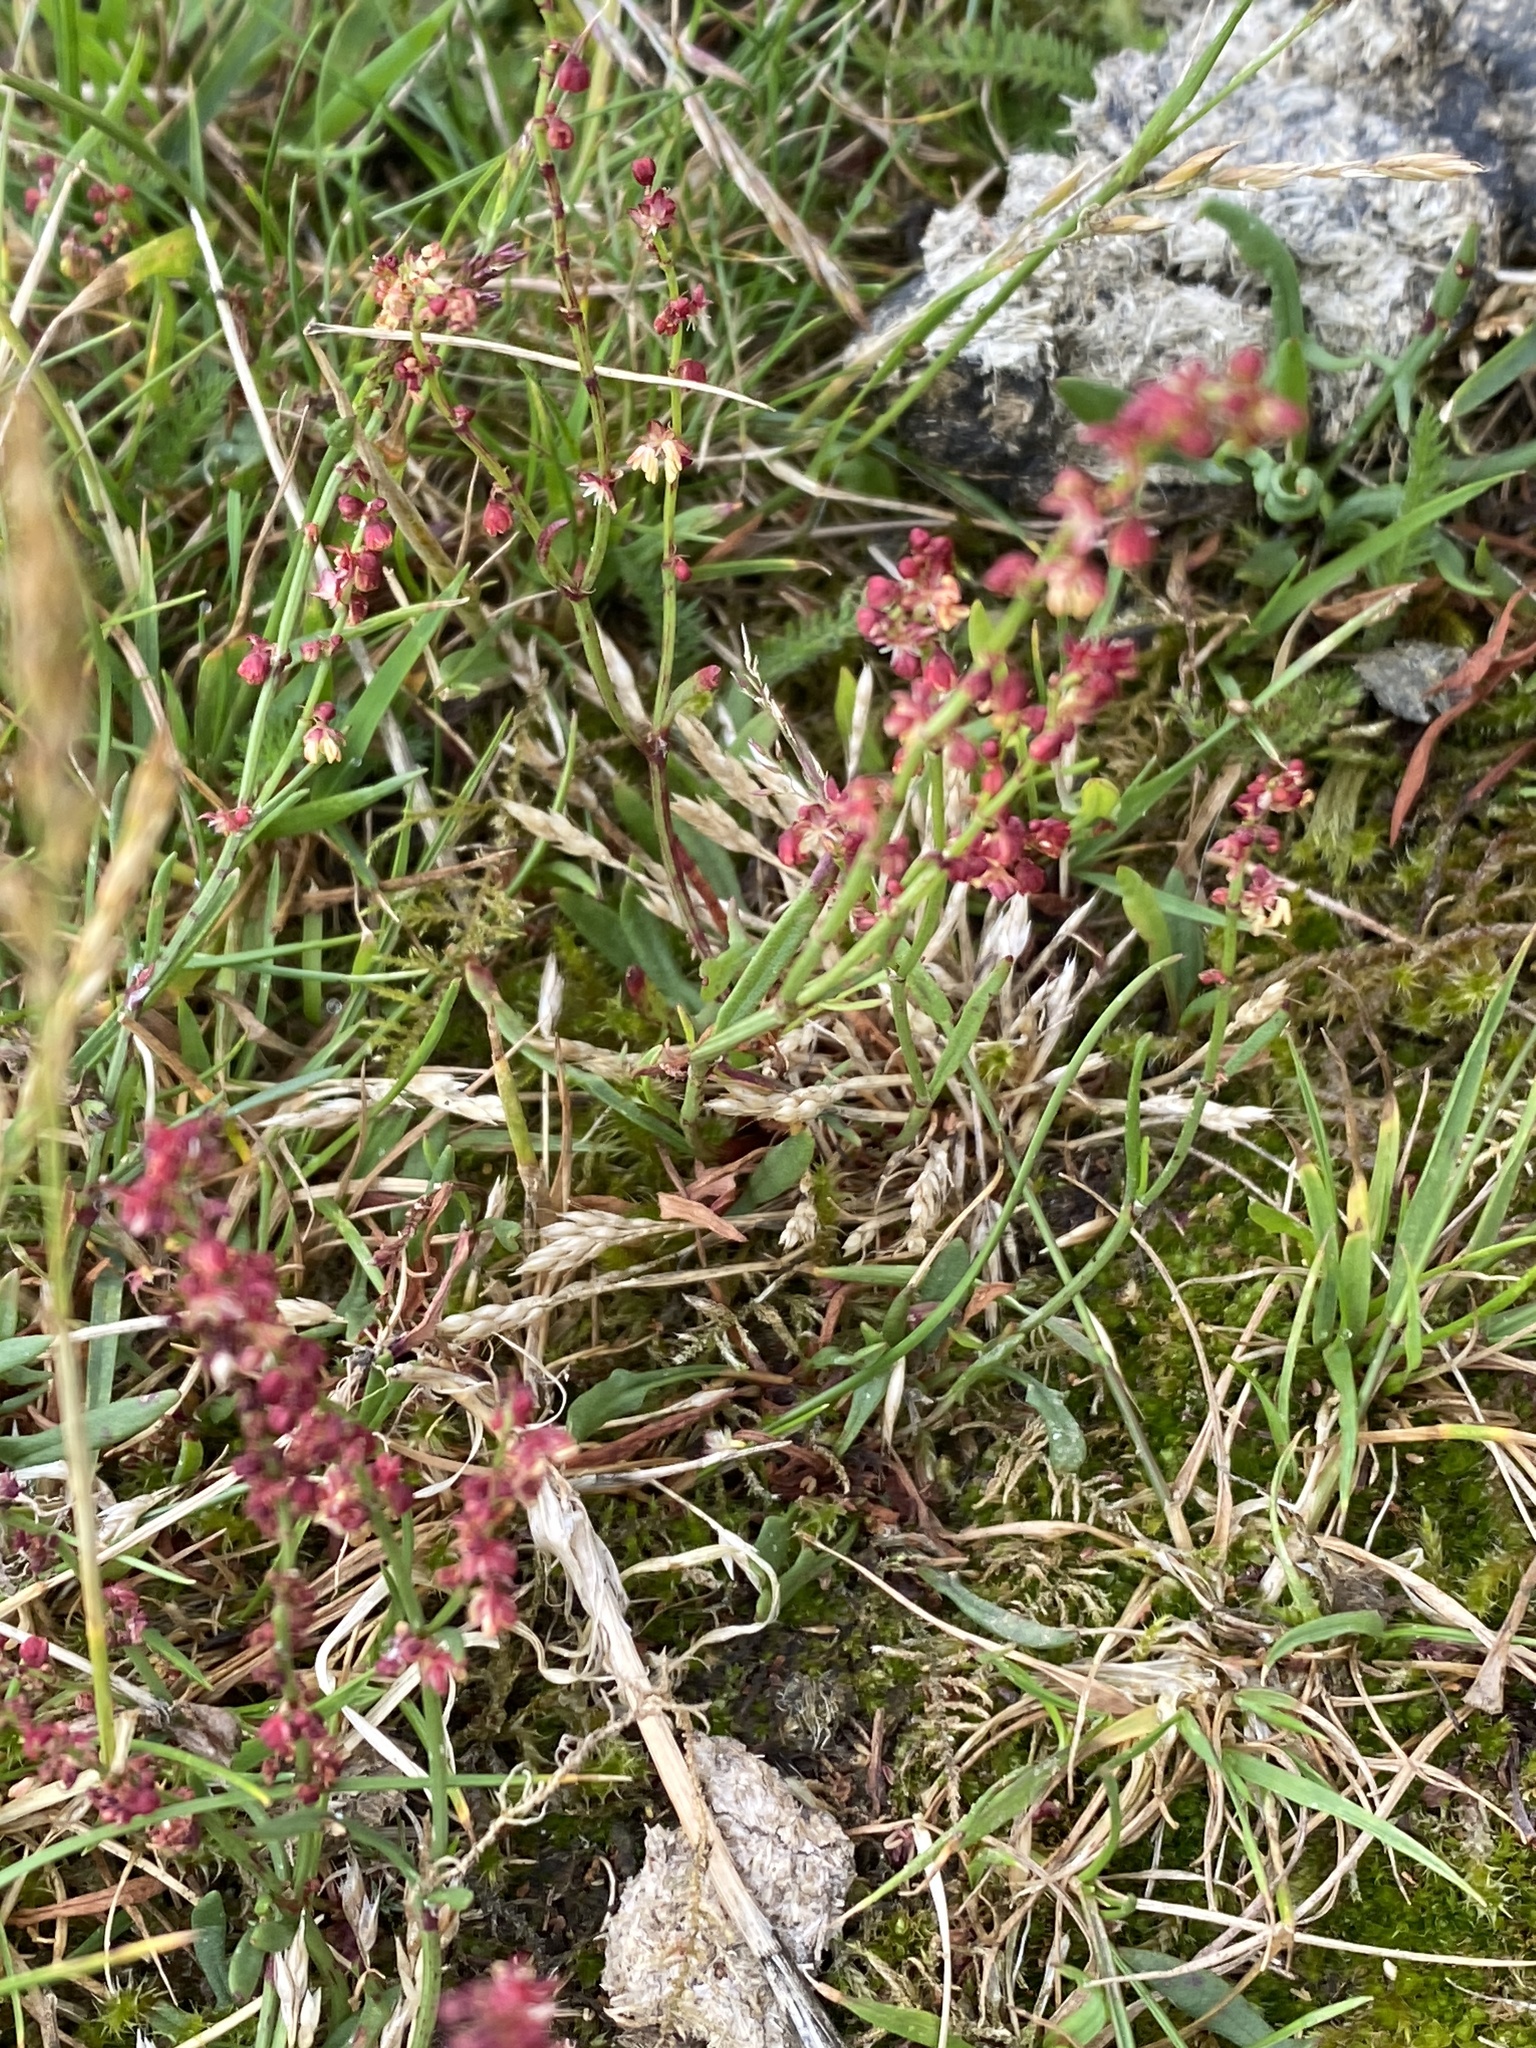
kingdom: Plantae
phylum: Tracheophyta
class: Magnoliopsida
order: Caryophyllales
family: Polygonaceae
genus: Rumex
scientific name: Rumex acetosella
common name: Common sheep sorrel
